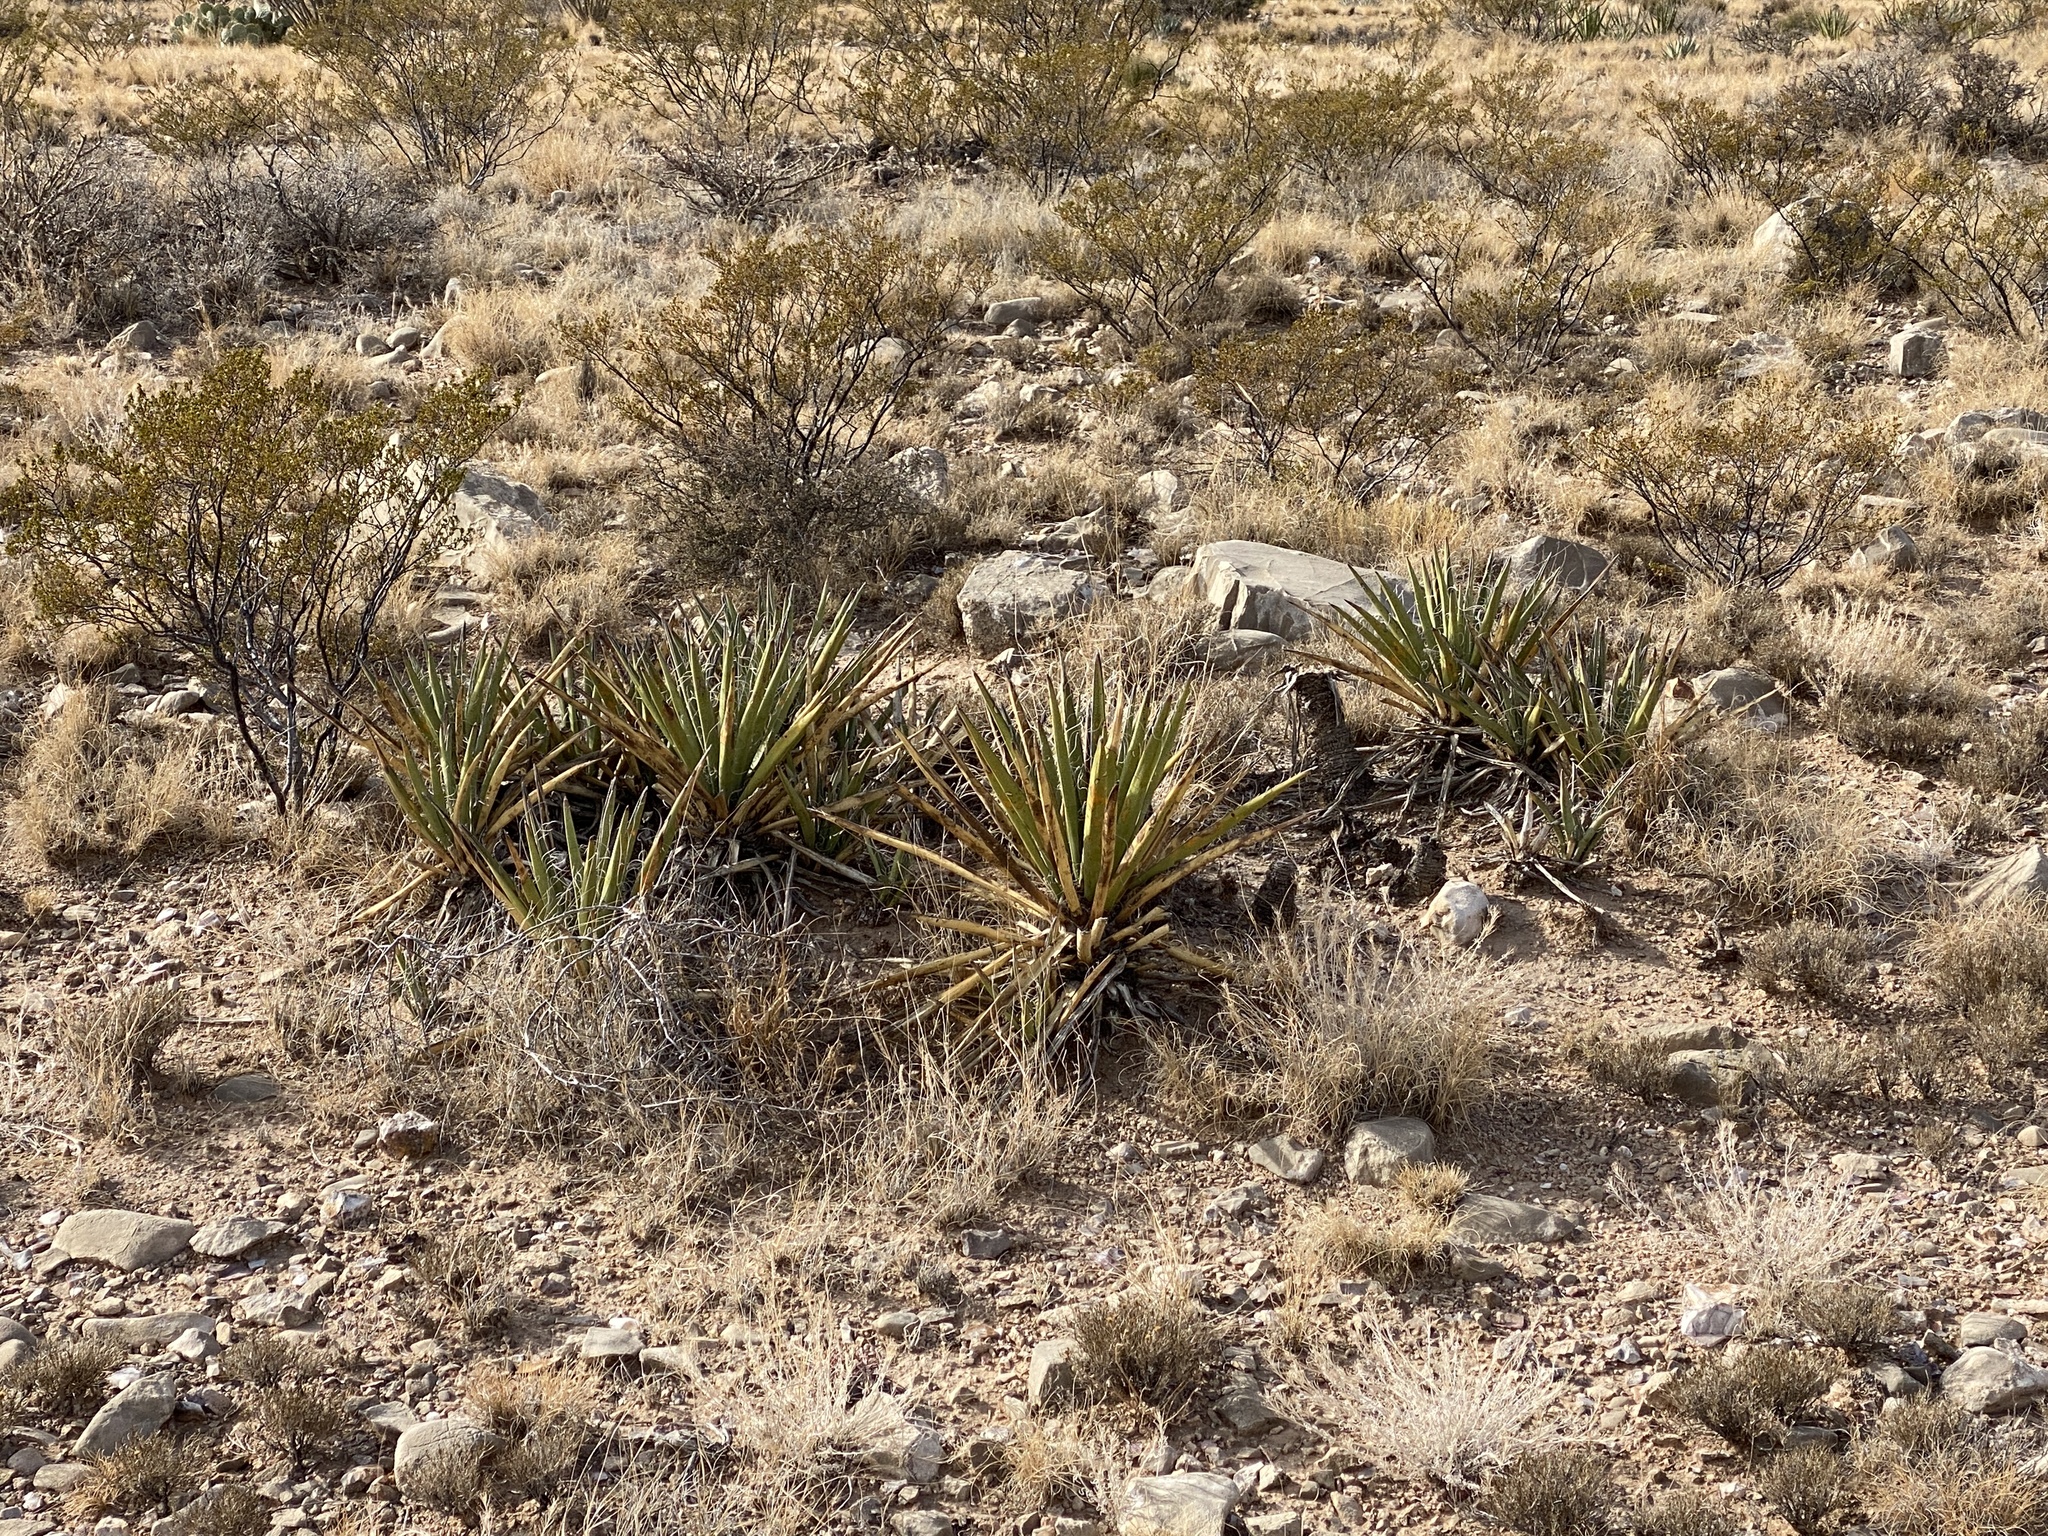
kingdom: Plantae
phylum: Tracheophyta
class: Liliopsida
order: Asparagales
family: Asparagaceae
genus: Yucca
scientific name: Yucca baccata
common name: Banana yucca
